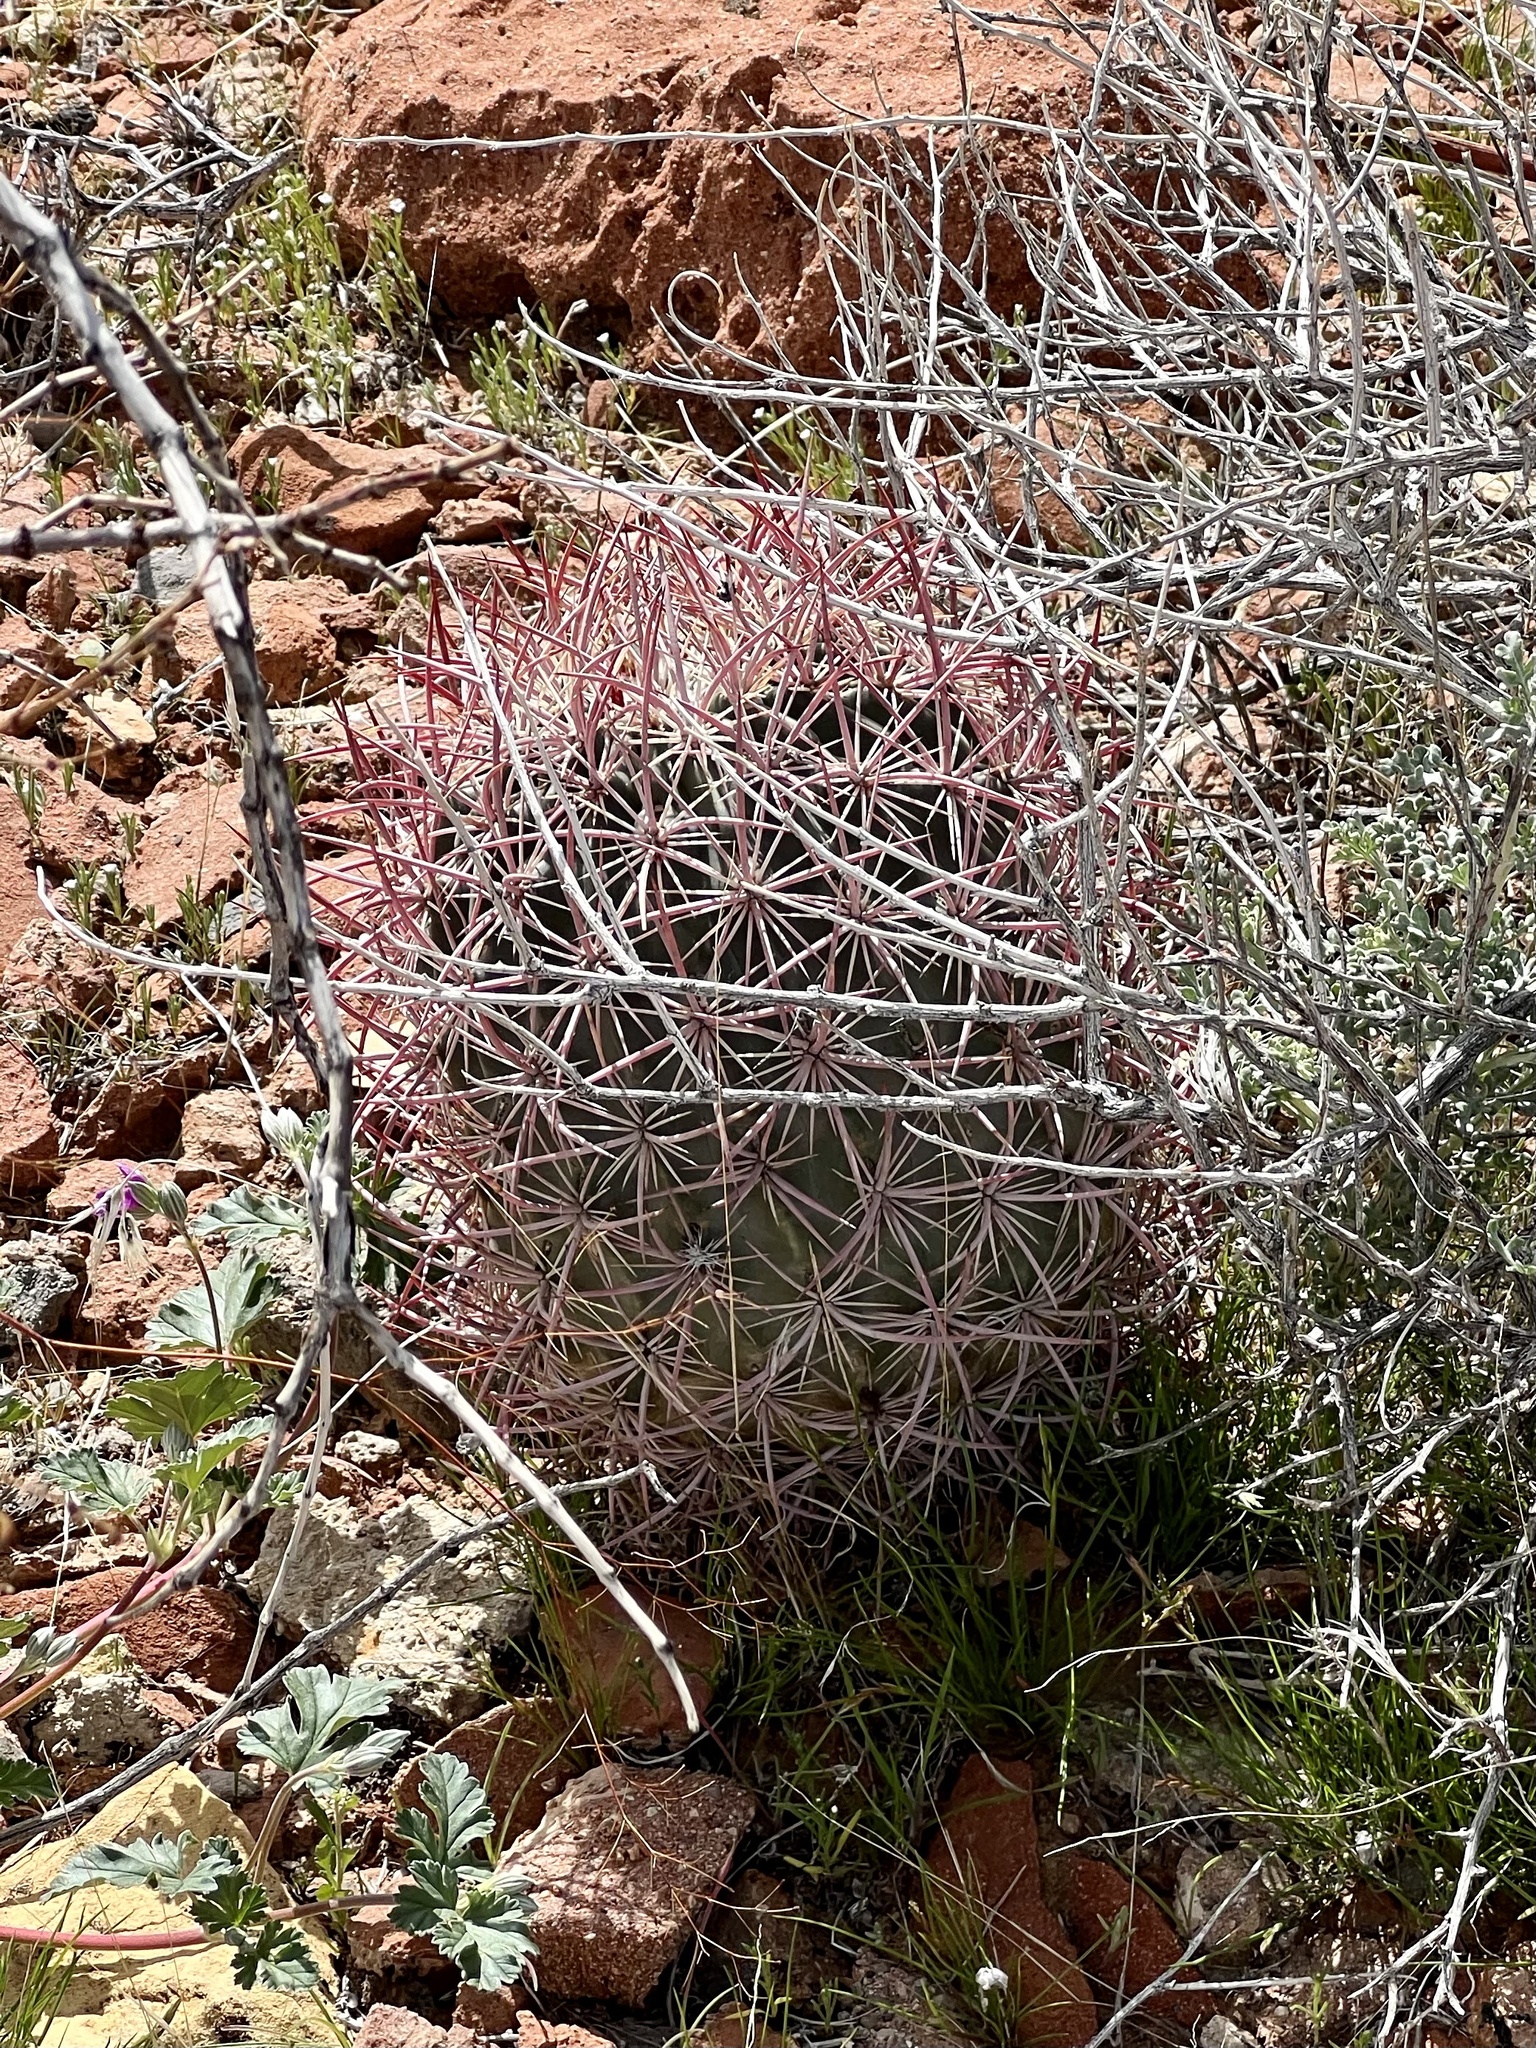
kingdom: Plantae
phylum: Tracheophyta
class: Magnoliopsida
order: Caryophyllales
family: Cactaceae
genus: Sclerocactus
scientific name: Sclerocactus johnsonii
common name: Eight-spine fishhook cactus
